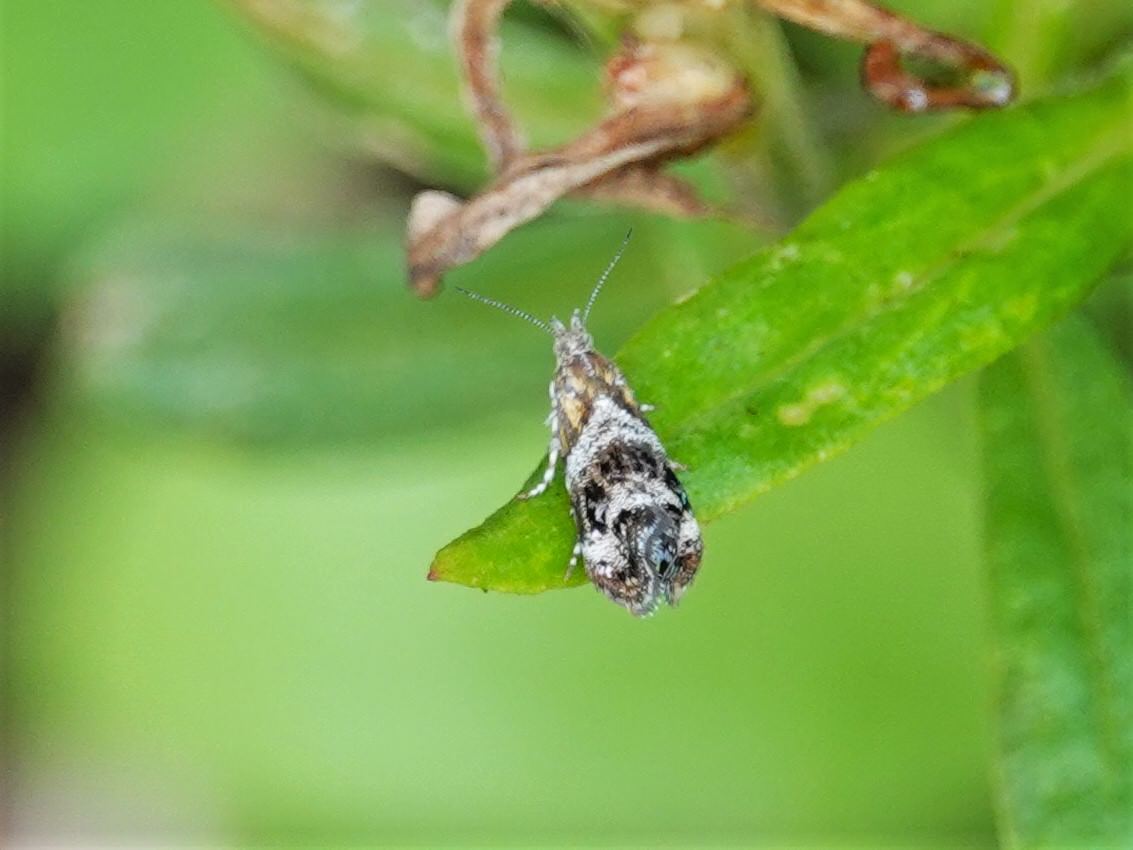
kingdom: Animalia
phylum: Arthropoda
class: Insecta
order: Lepidoptera
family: Choreutidae
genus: Tebenna
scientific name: Tebenna micalis
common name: Vagrant twitcher
